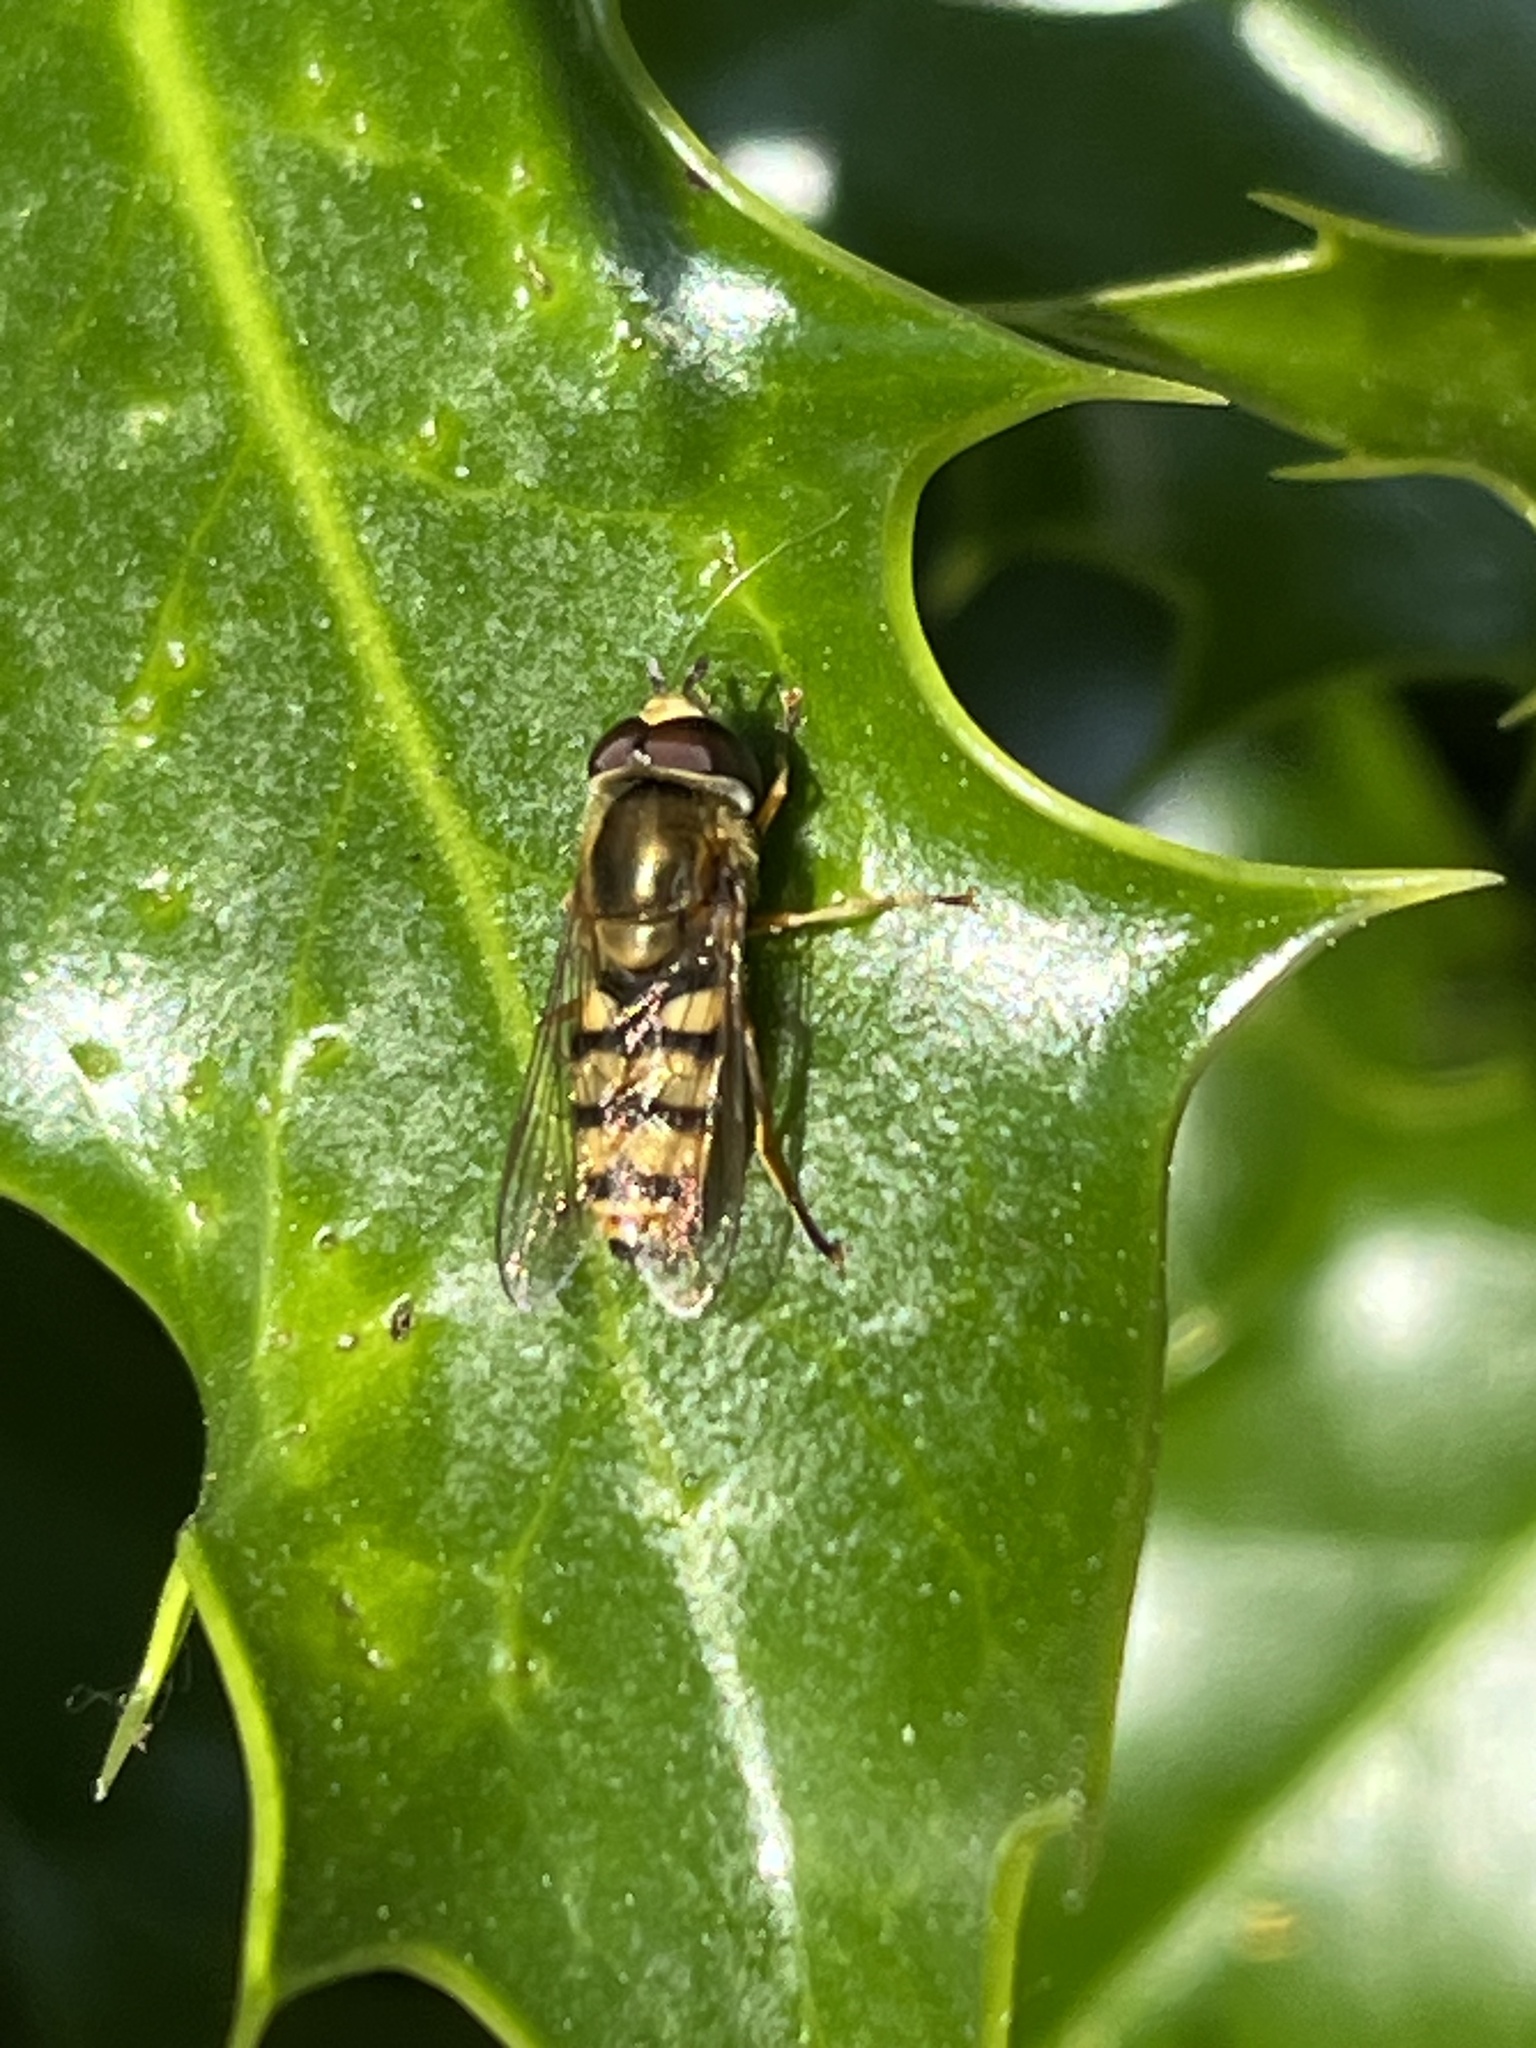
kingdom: Animalia
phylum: Arthropoda
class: Insecta
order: Diptera
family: Syrphidae
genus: Eupeodes
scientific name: Eupeodes corollae
